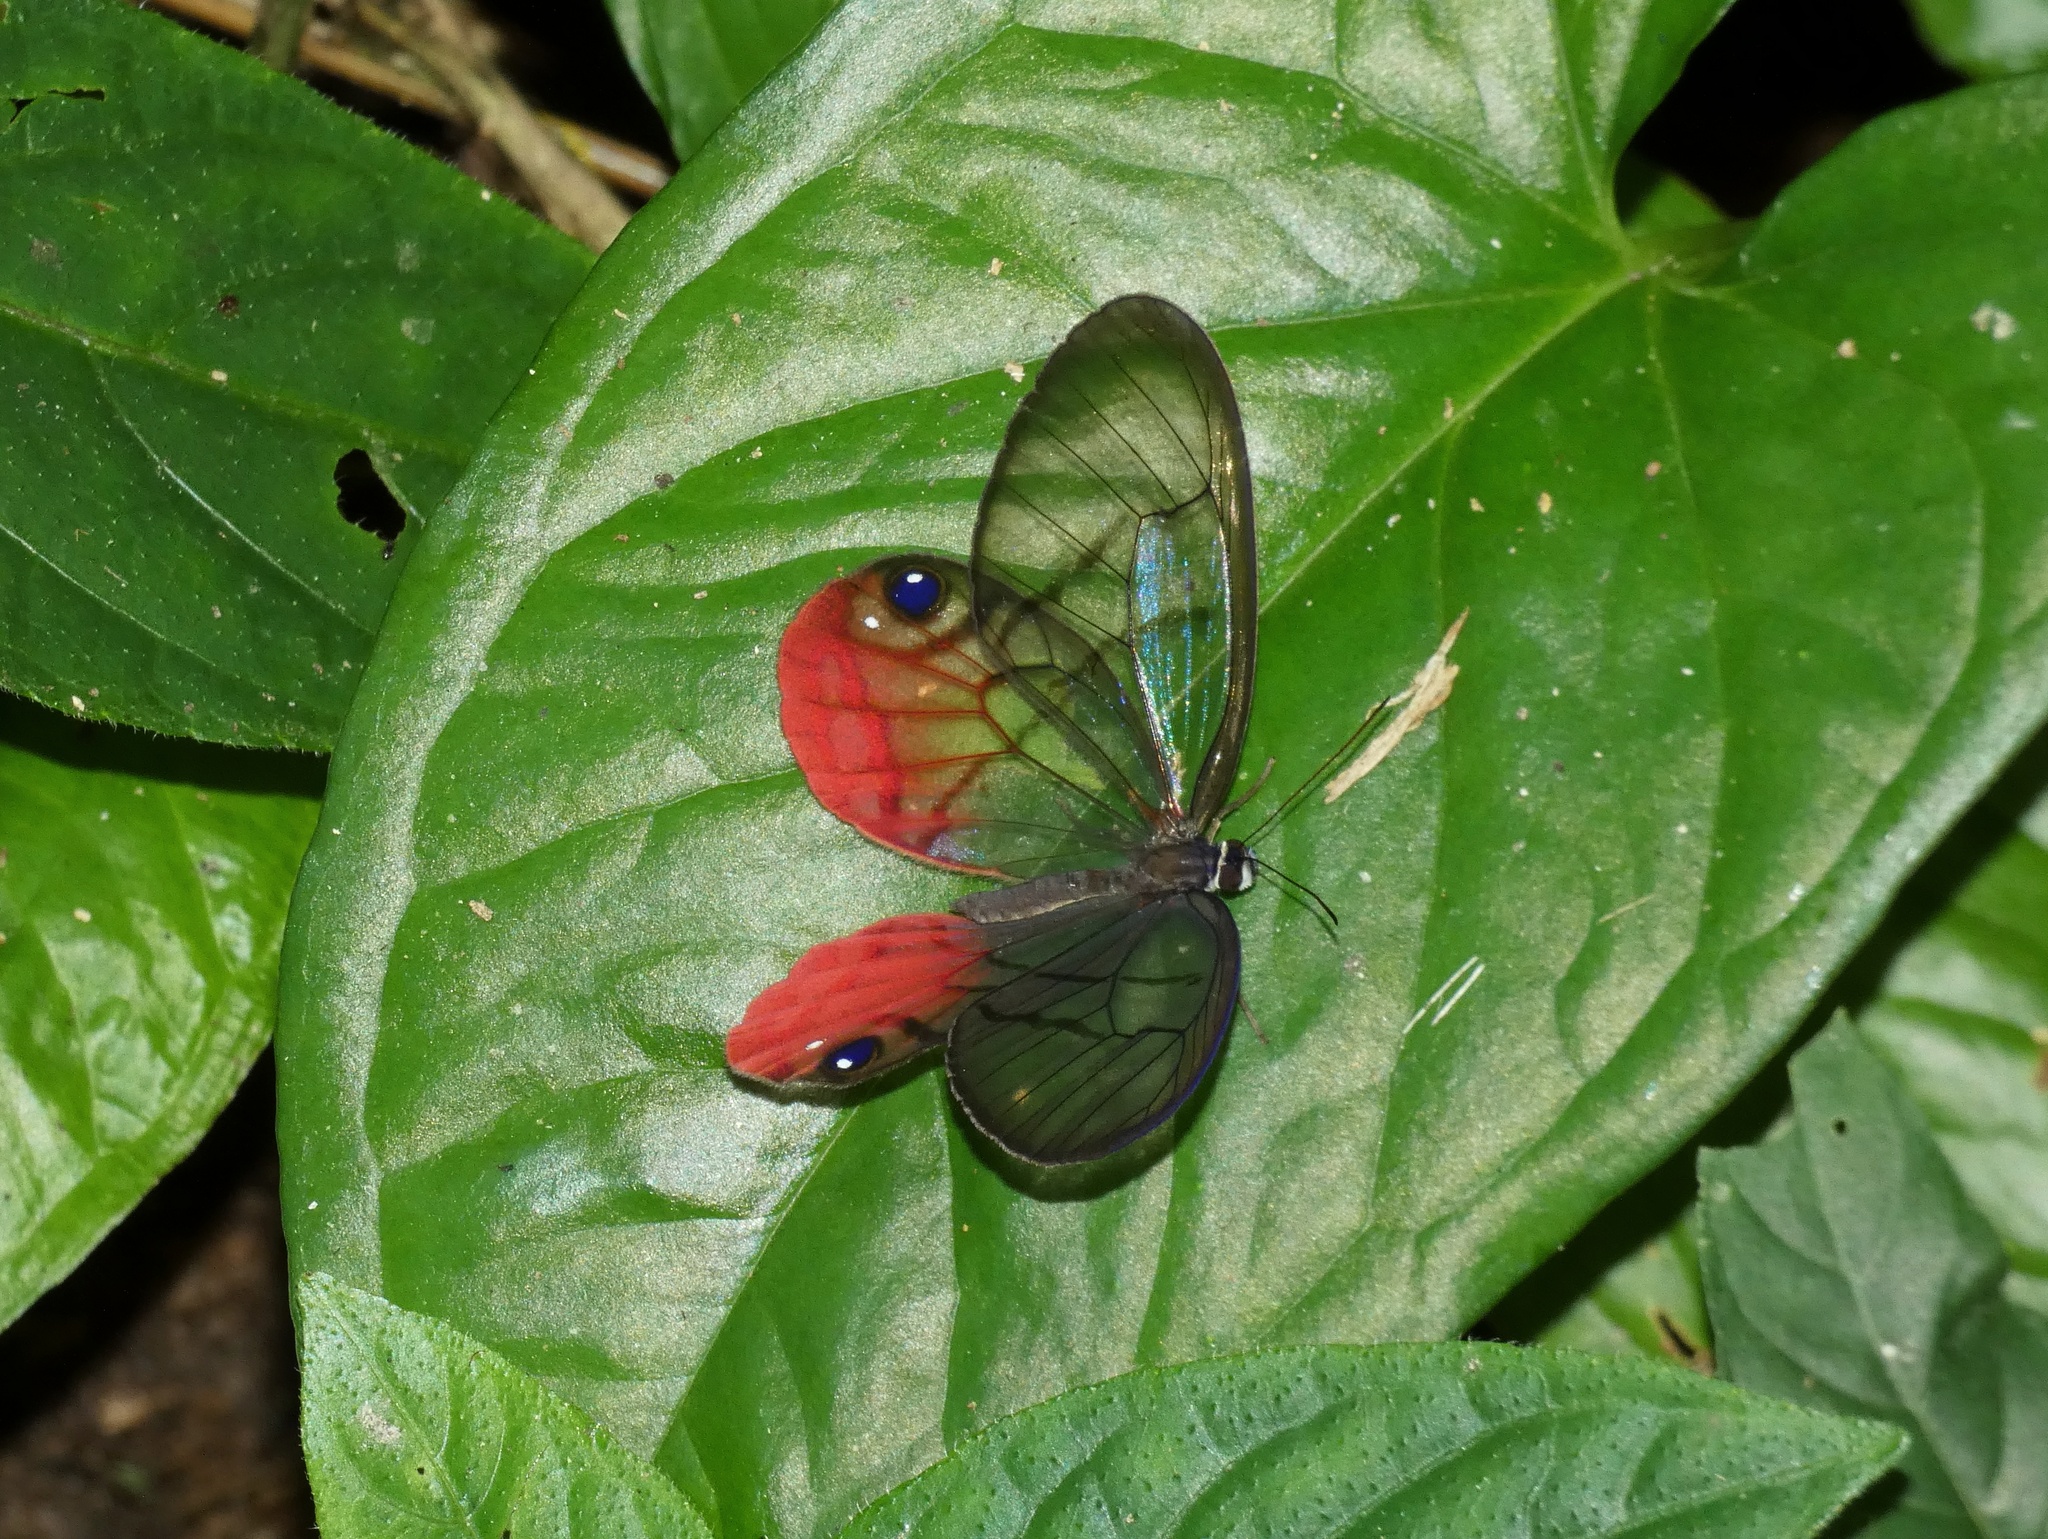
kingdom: Animalia
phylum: Arthropoda
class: Insecta
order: Lepidoptera
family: Nymphalidae
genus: Cithaerias
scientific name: Cithaerias pireta
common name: Rusted clearwing-satyr
